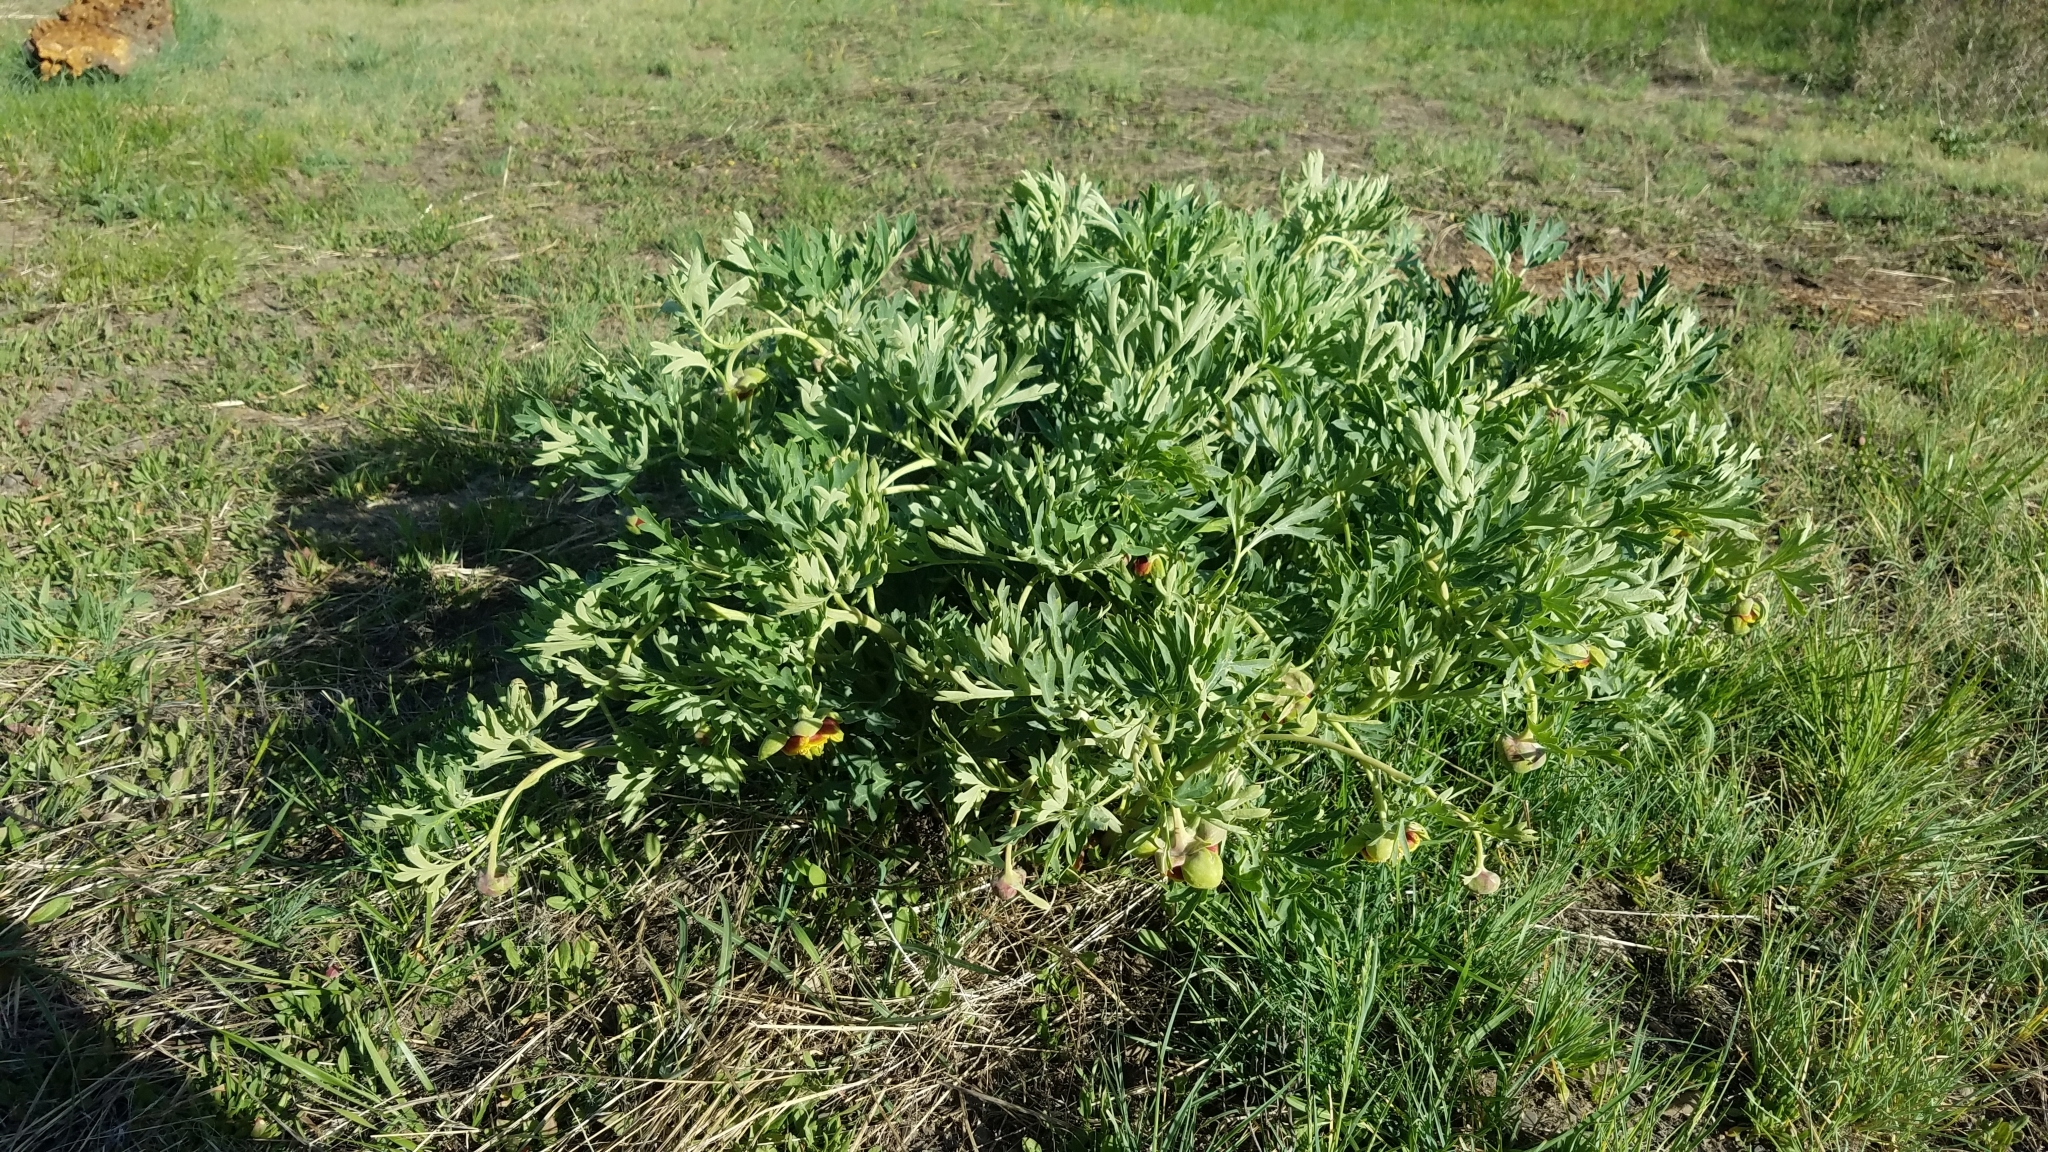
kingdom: Plantae
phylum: Tracheophyta
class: Magnoliopsida
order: Saxifragales
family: Paeoniaceae
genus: Paeonia
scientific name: Paeonia brownii
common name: Brown's peony
